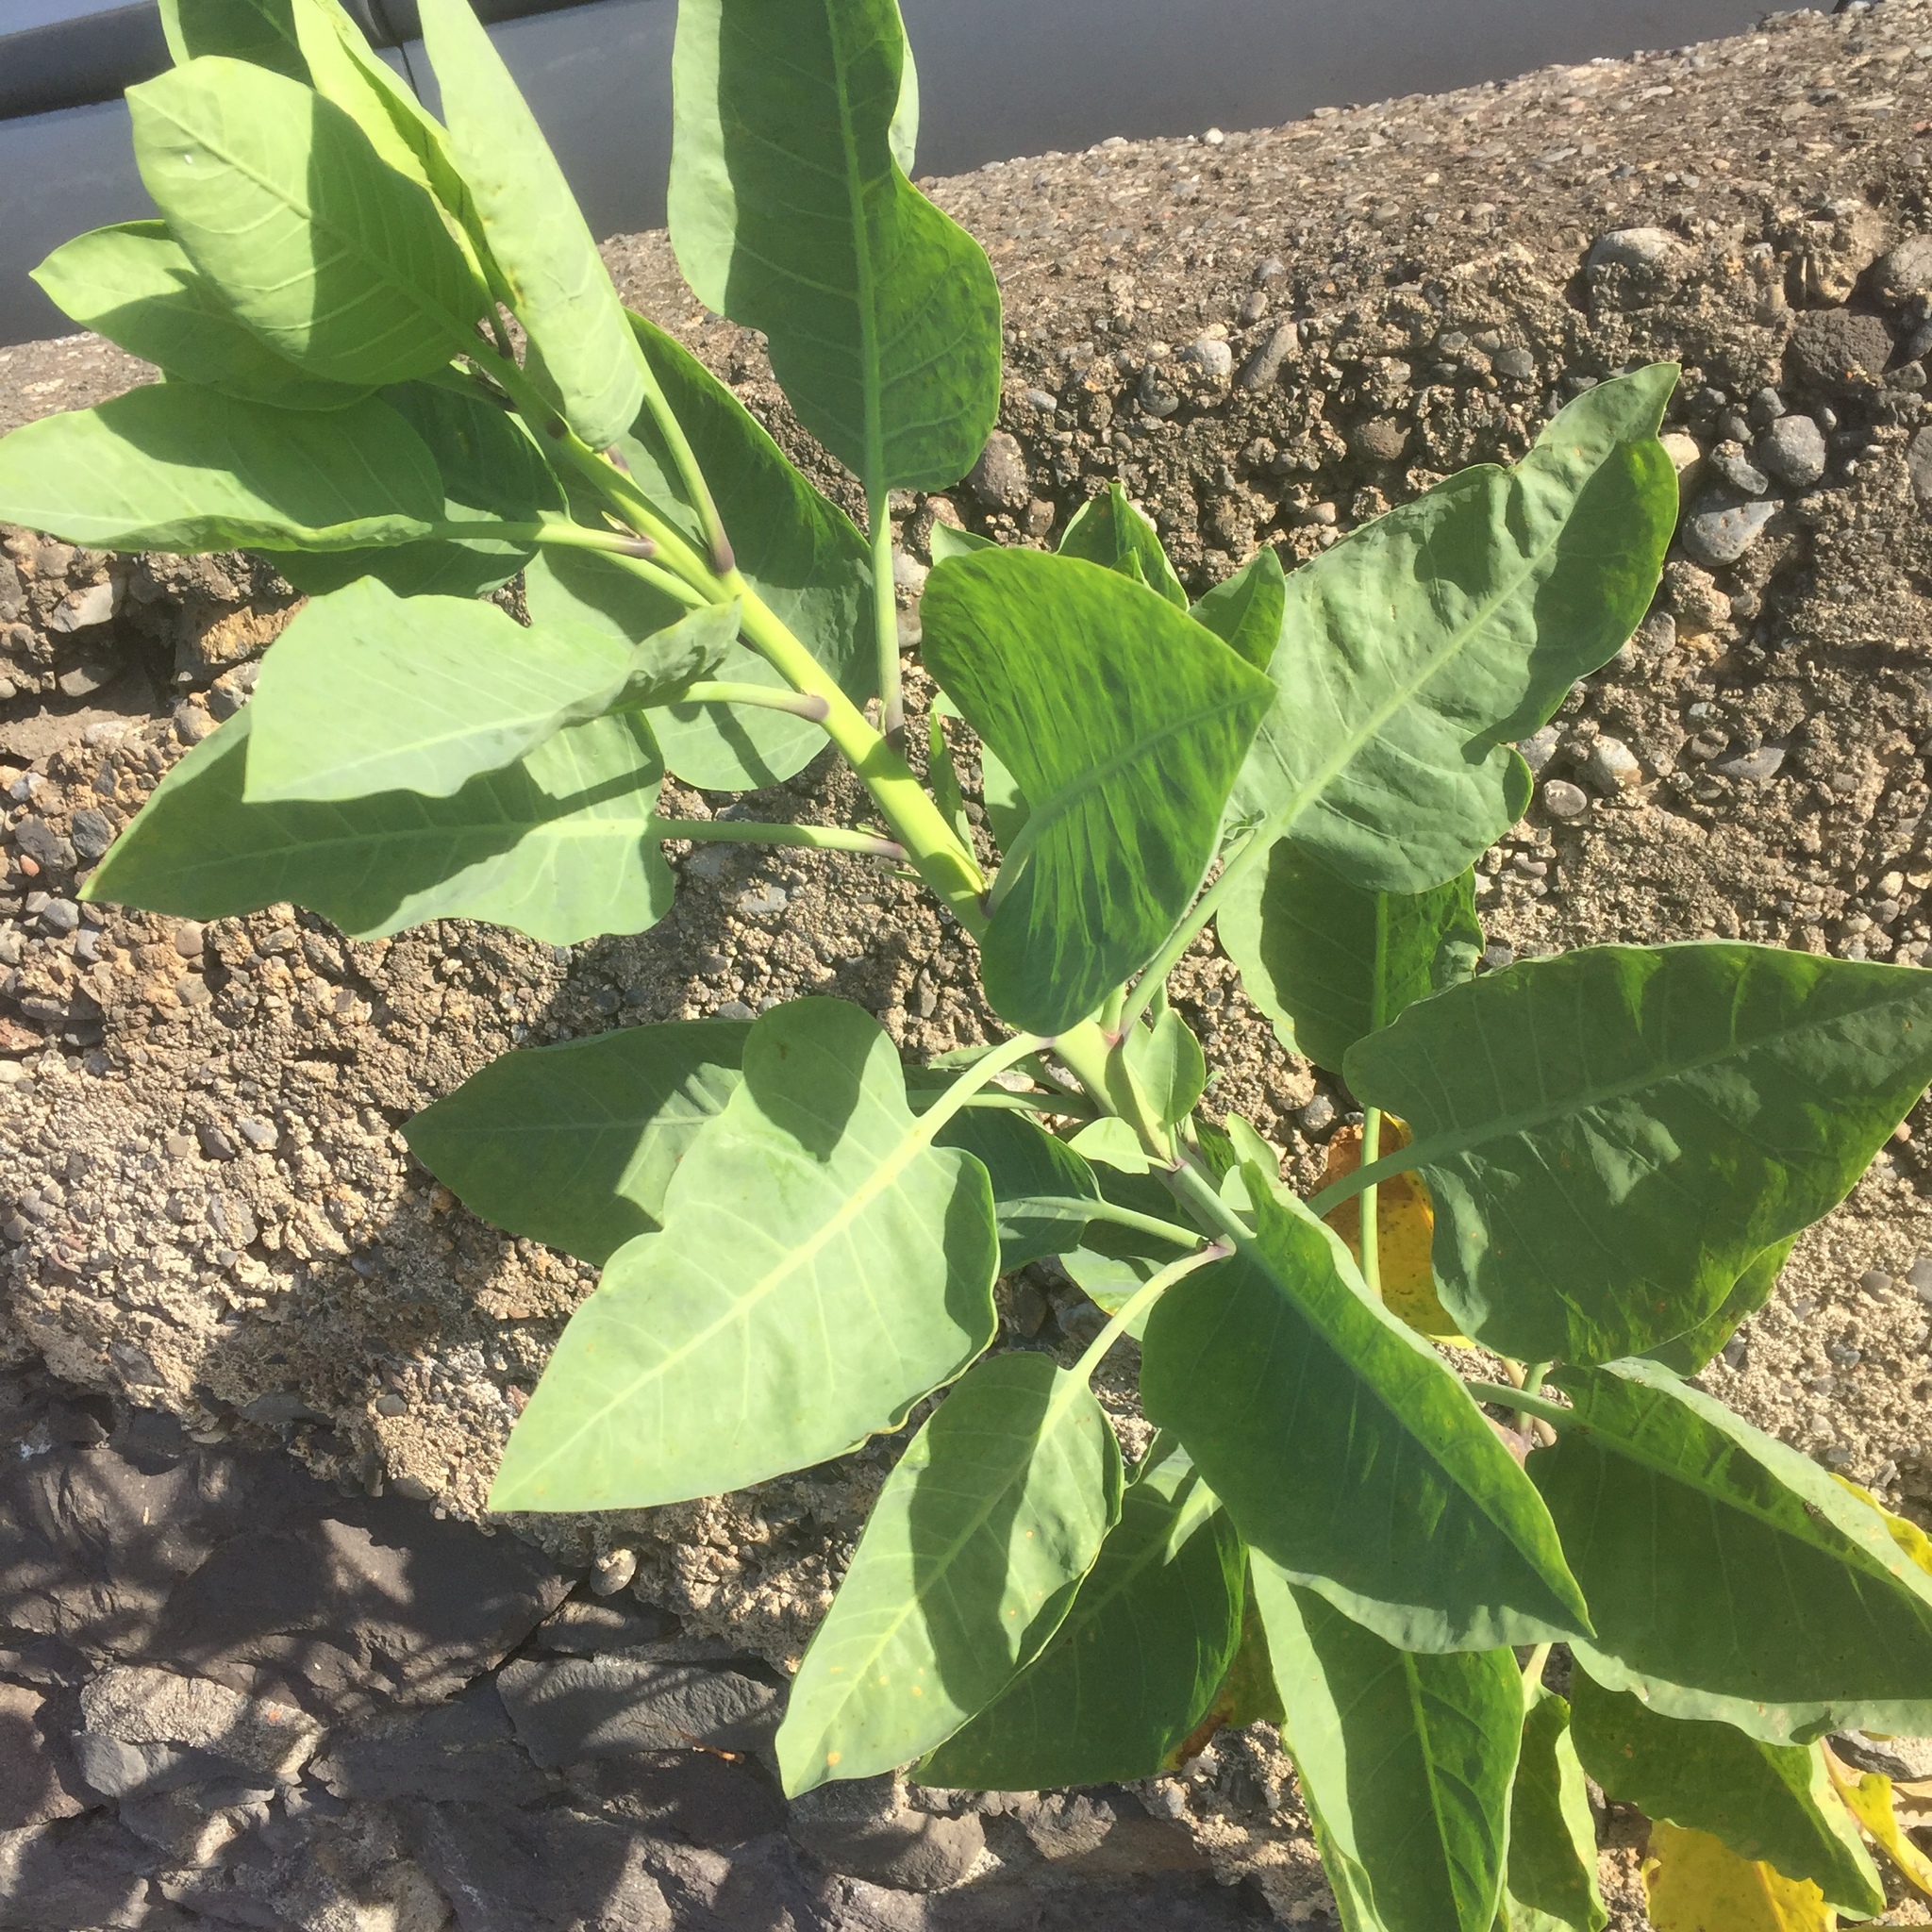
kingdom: Plantae
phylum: Tracheophyta
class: Magnoliopsida
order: Solanales
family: Solanaceae
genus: Nicotiana
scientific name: Nicotiana glauca
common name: Tree tobacco
